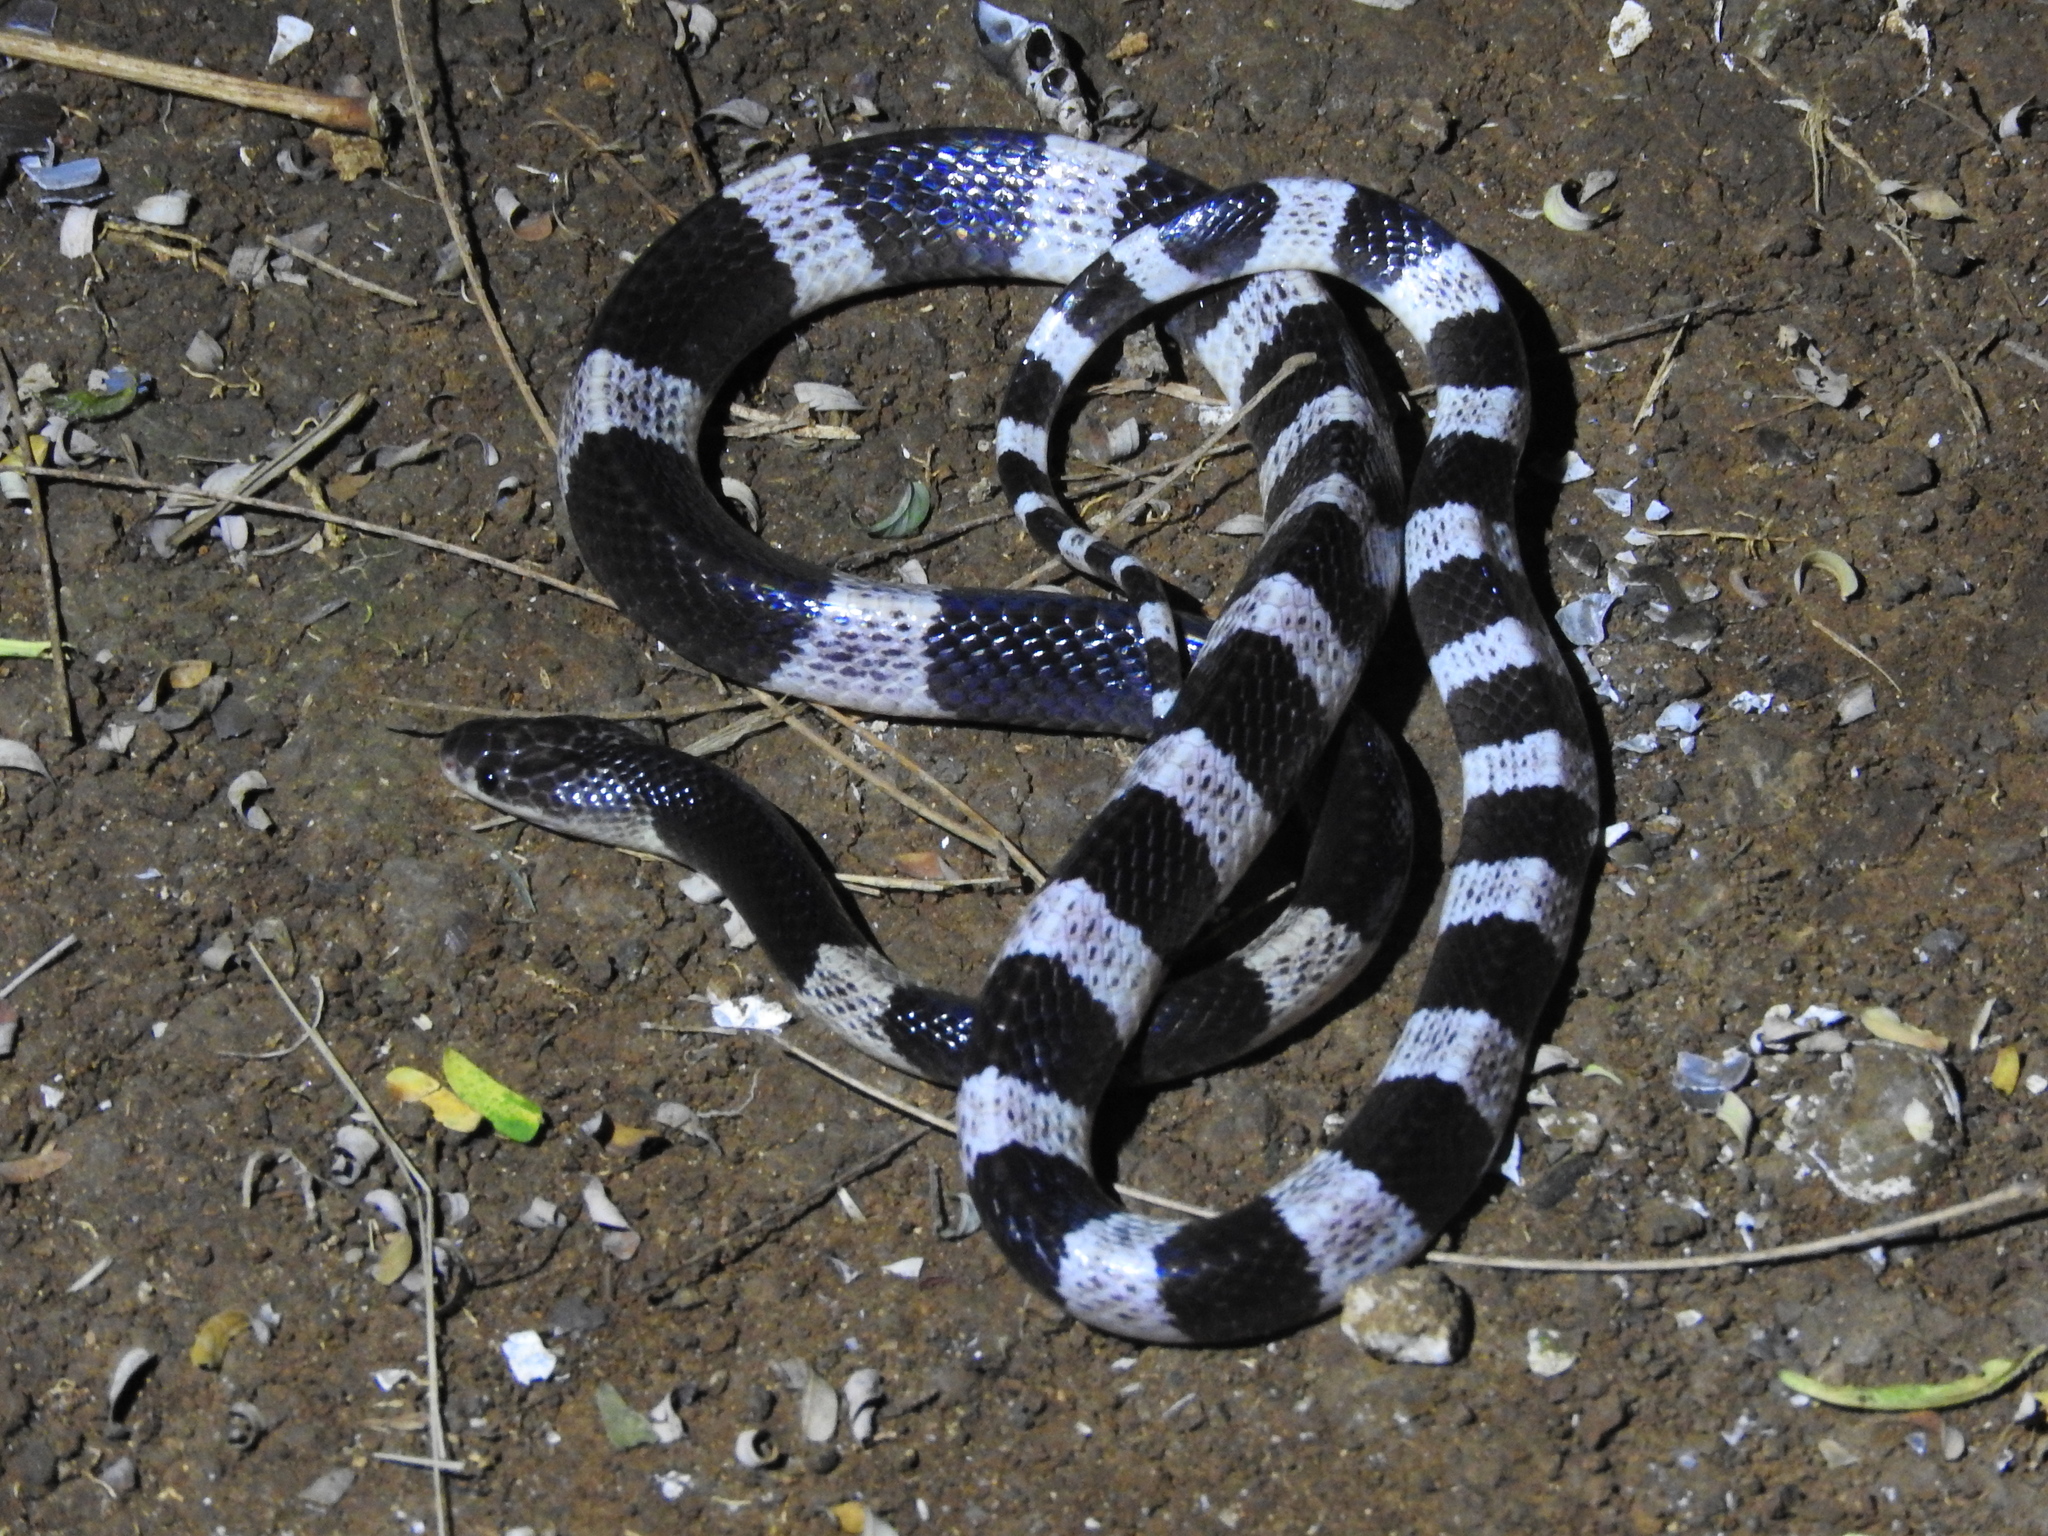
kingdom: Animalia
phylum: Chordata
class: Squamata
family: Elapidae
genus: Bungarus
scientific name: Bungarus candidus
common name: Blue krait/malayan krait
